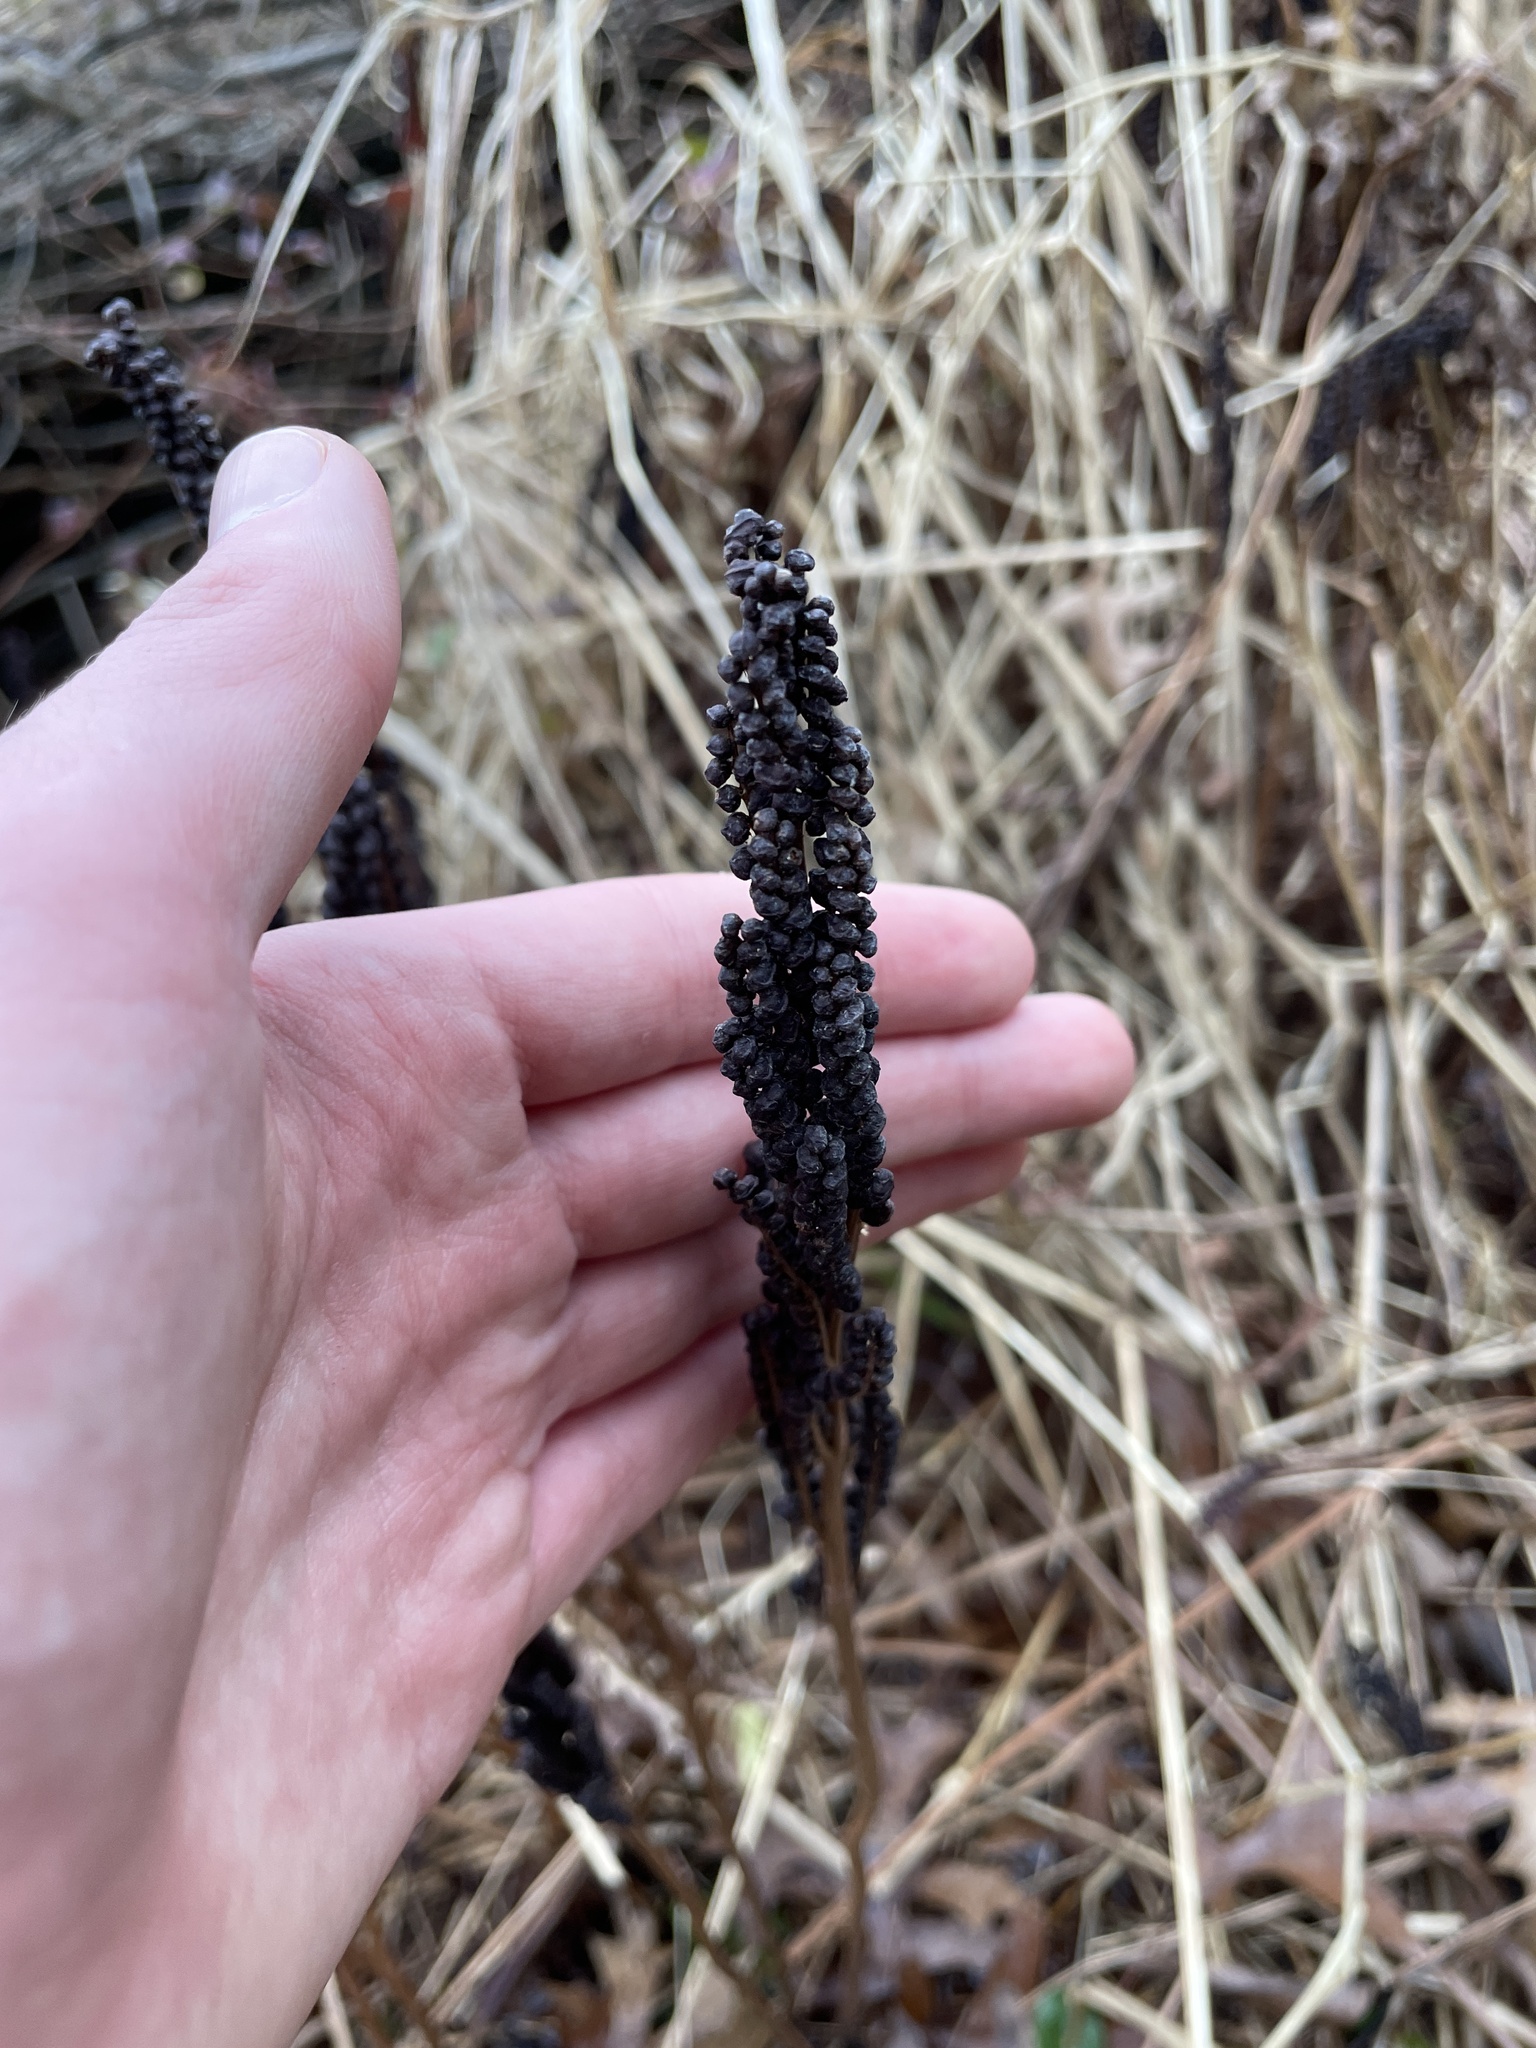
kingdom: Plantae
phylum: Tracheophyta
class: Polypodiopsida
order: Polypodiales
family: Onocleaceae
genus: Onoclea
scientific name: Onoclea sensibilis
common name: Sensitive fern
